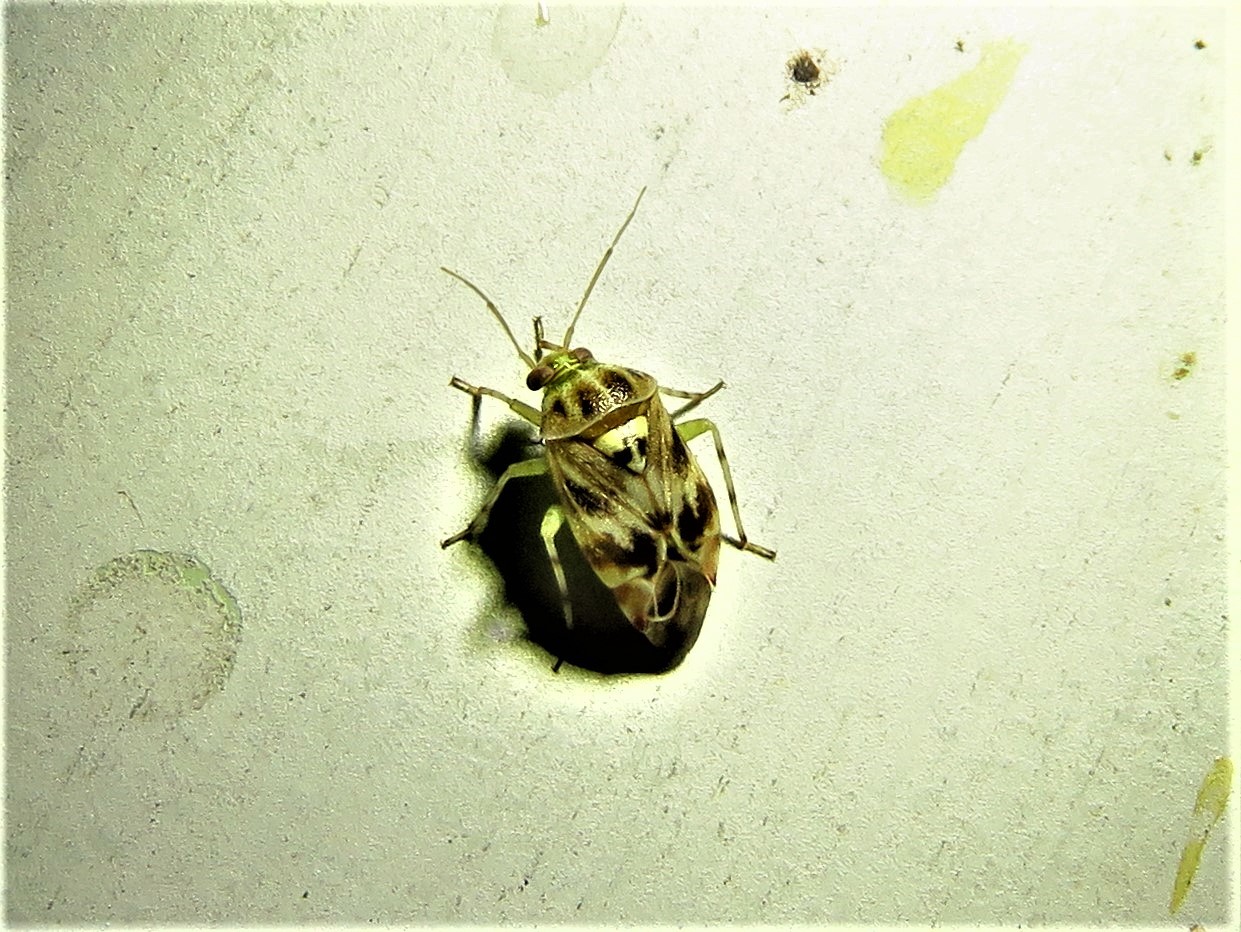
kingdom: Animalia
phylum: Arthropoda
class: Insecta
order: Hemiptera
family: Miridae
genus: Tropidosteptes
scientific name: Tropidosteptes quercicola
